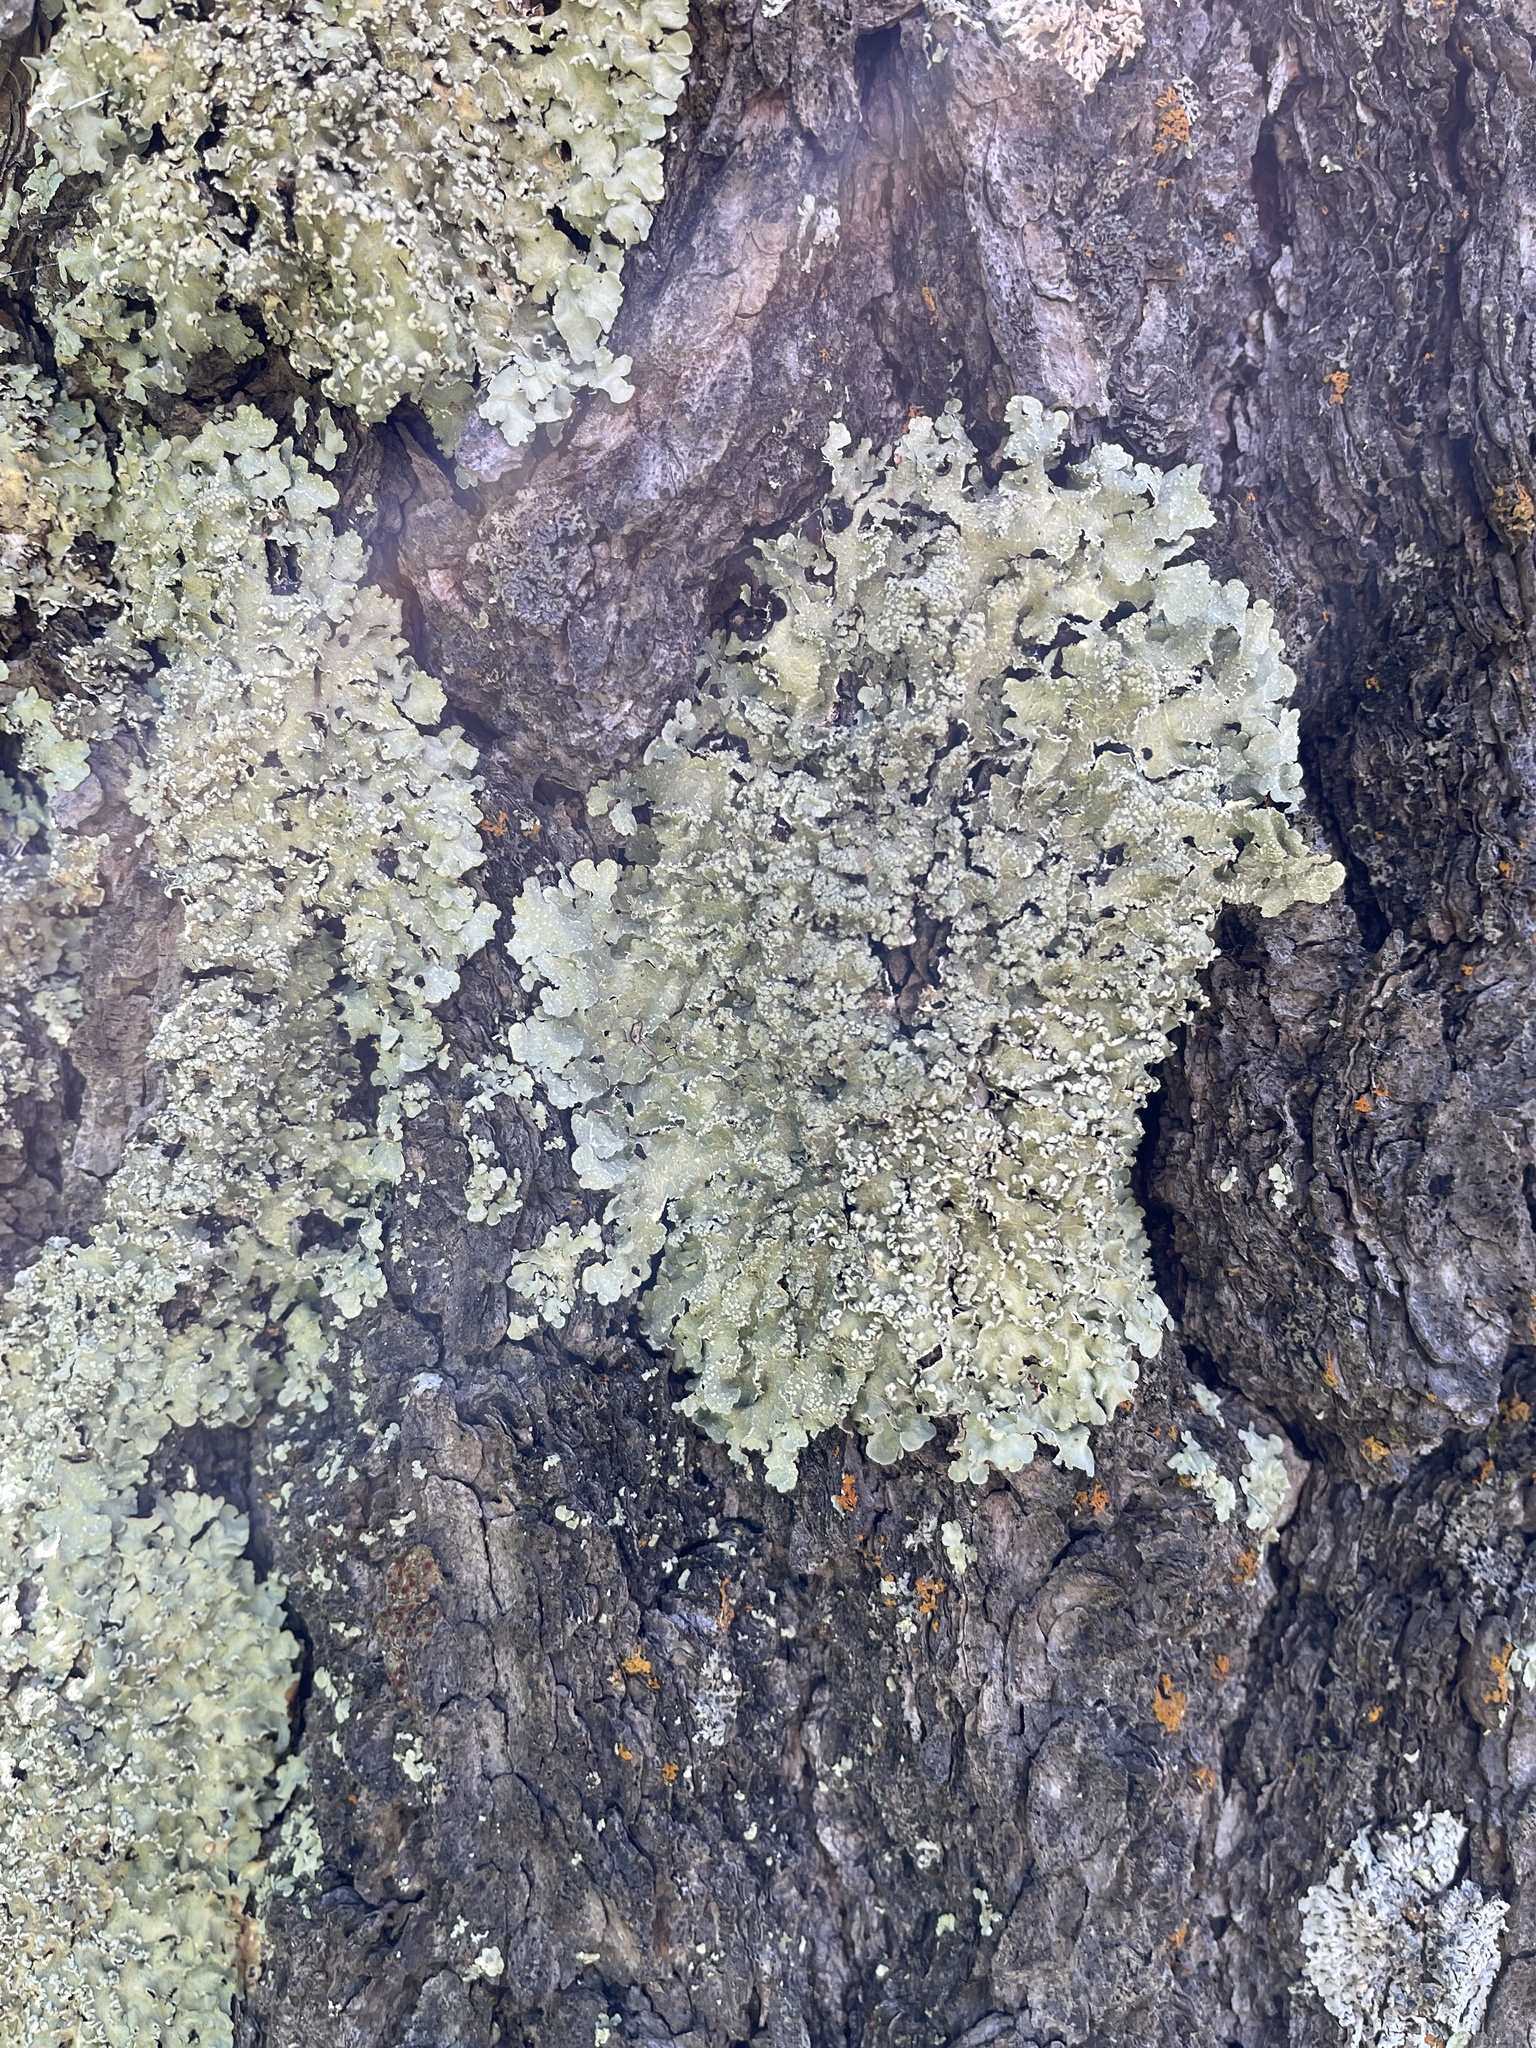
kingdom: Fungi
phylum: Ascomycota
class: Lecanoromycetes
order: Lecanorales
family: Parmeliaceae
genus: Flavopunctelia
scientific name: Flavopunctelia flaventior
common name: Speckled greenshield
